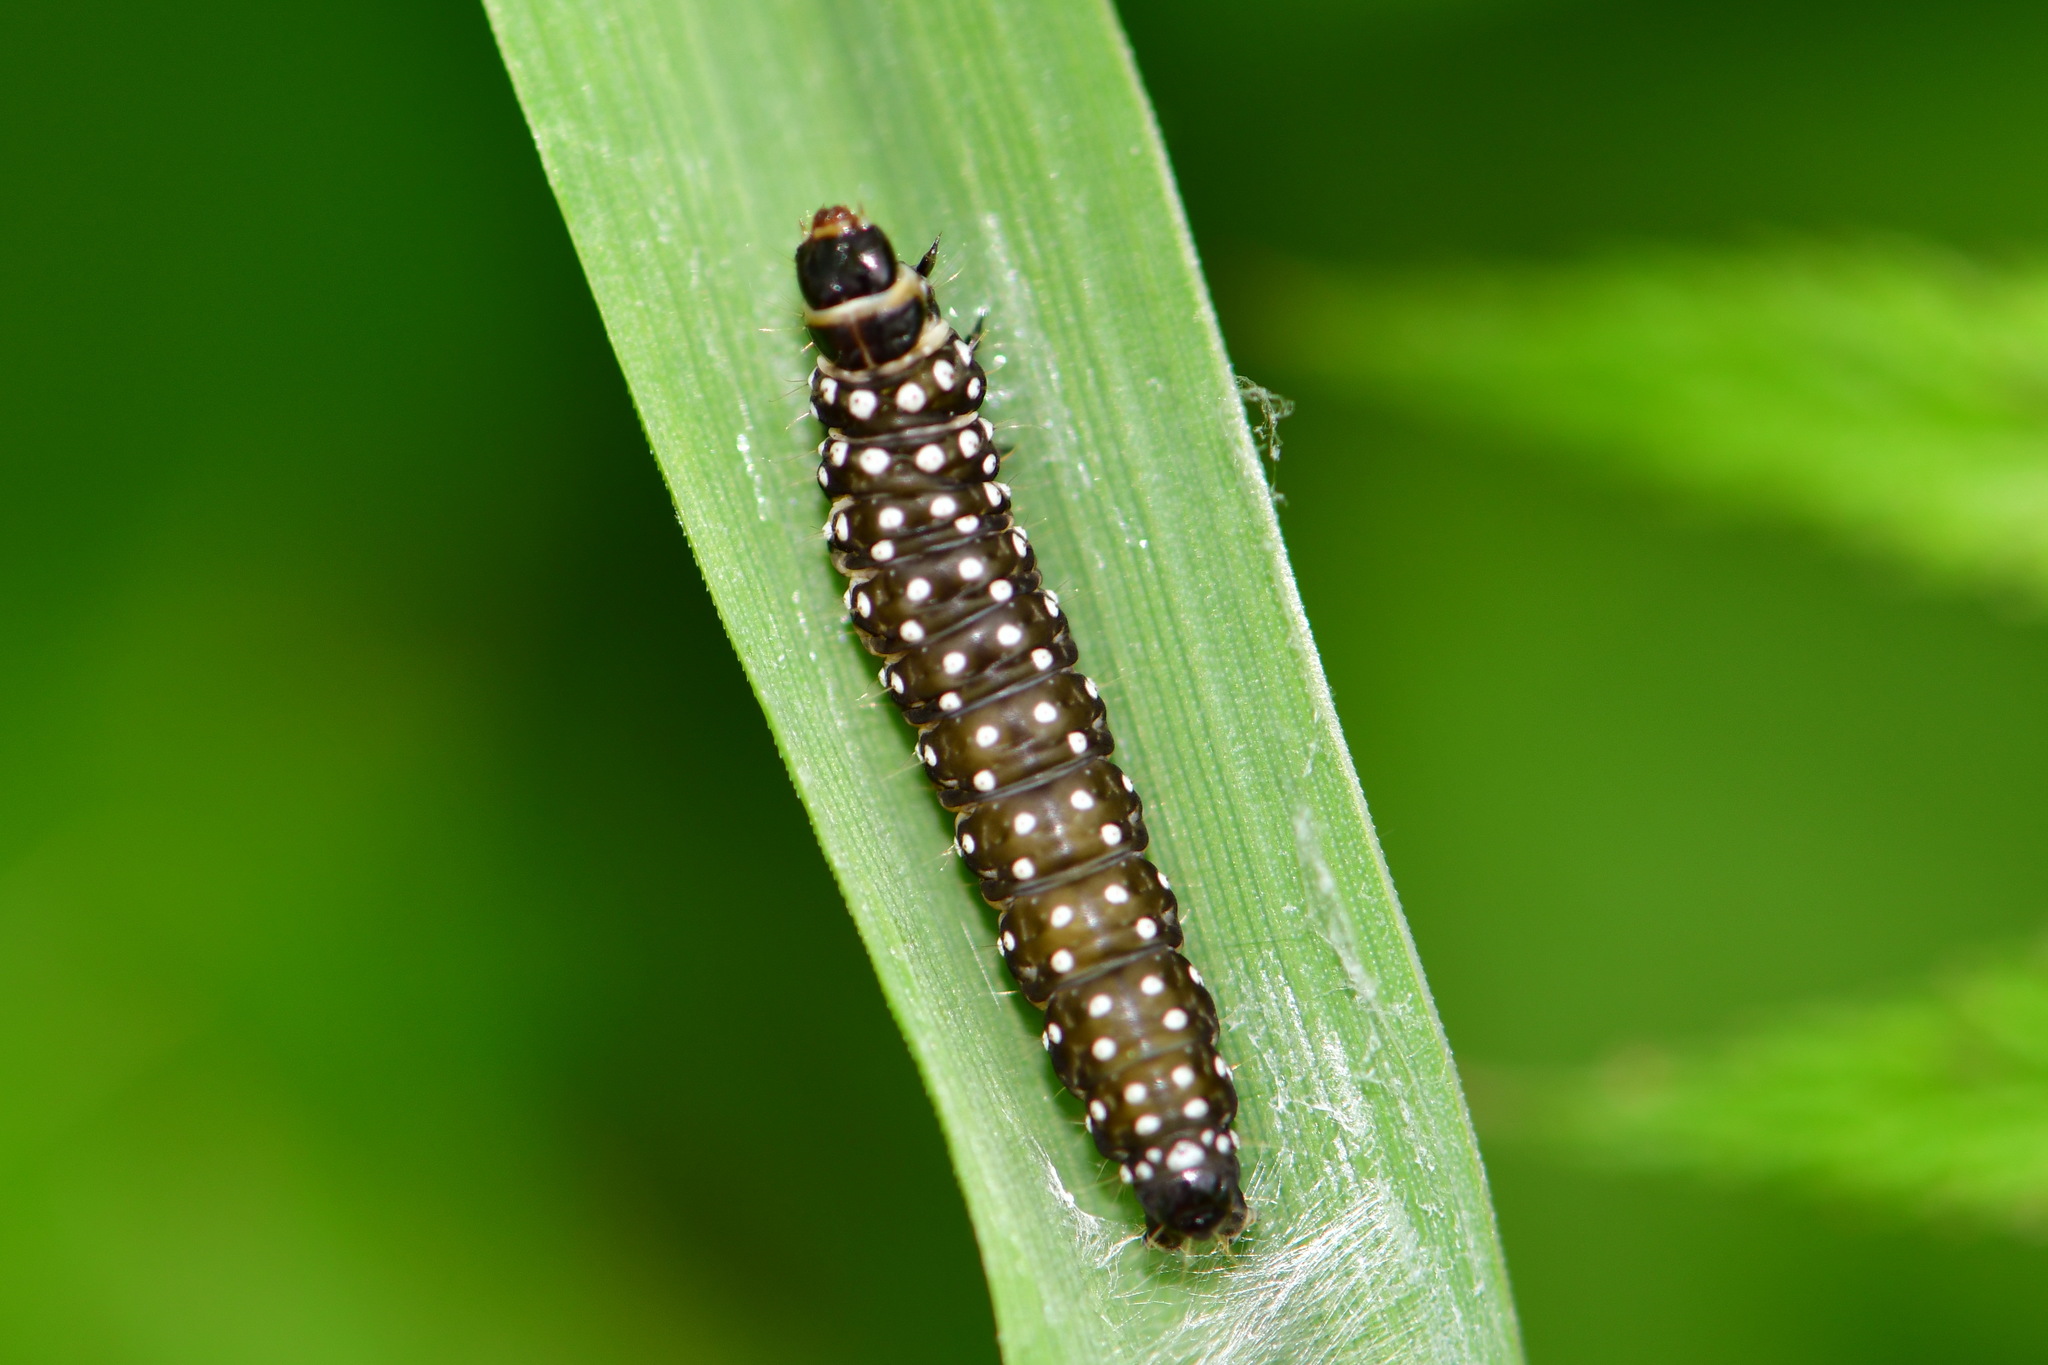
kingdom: Animalia
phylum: Arthropoda
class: Insecta
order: Lepidoptera
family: Tortricidae
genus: Aphelia
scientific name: Aphelia Zelotherses paleana
